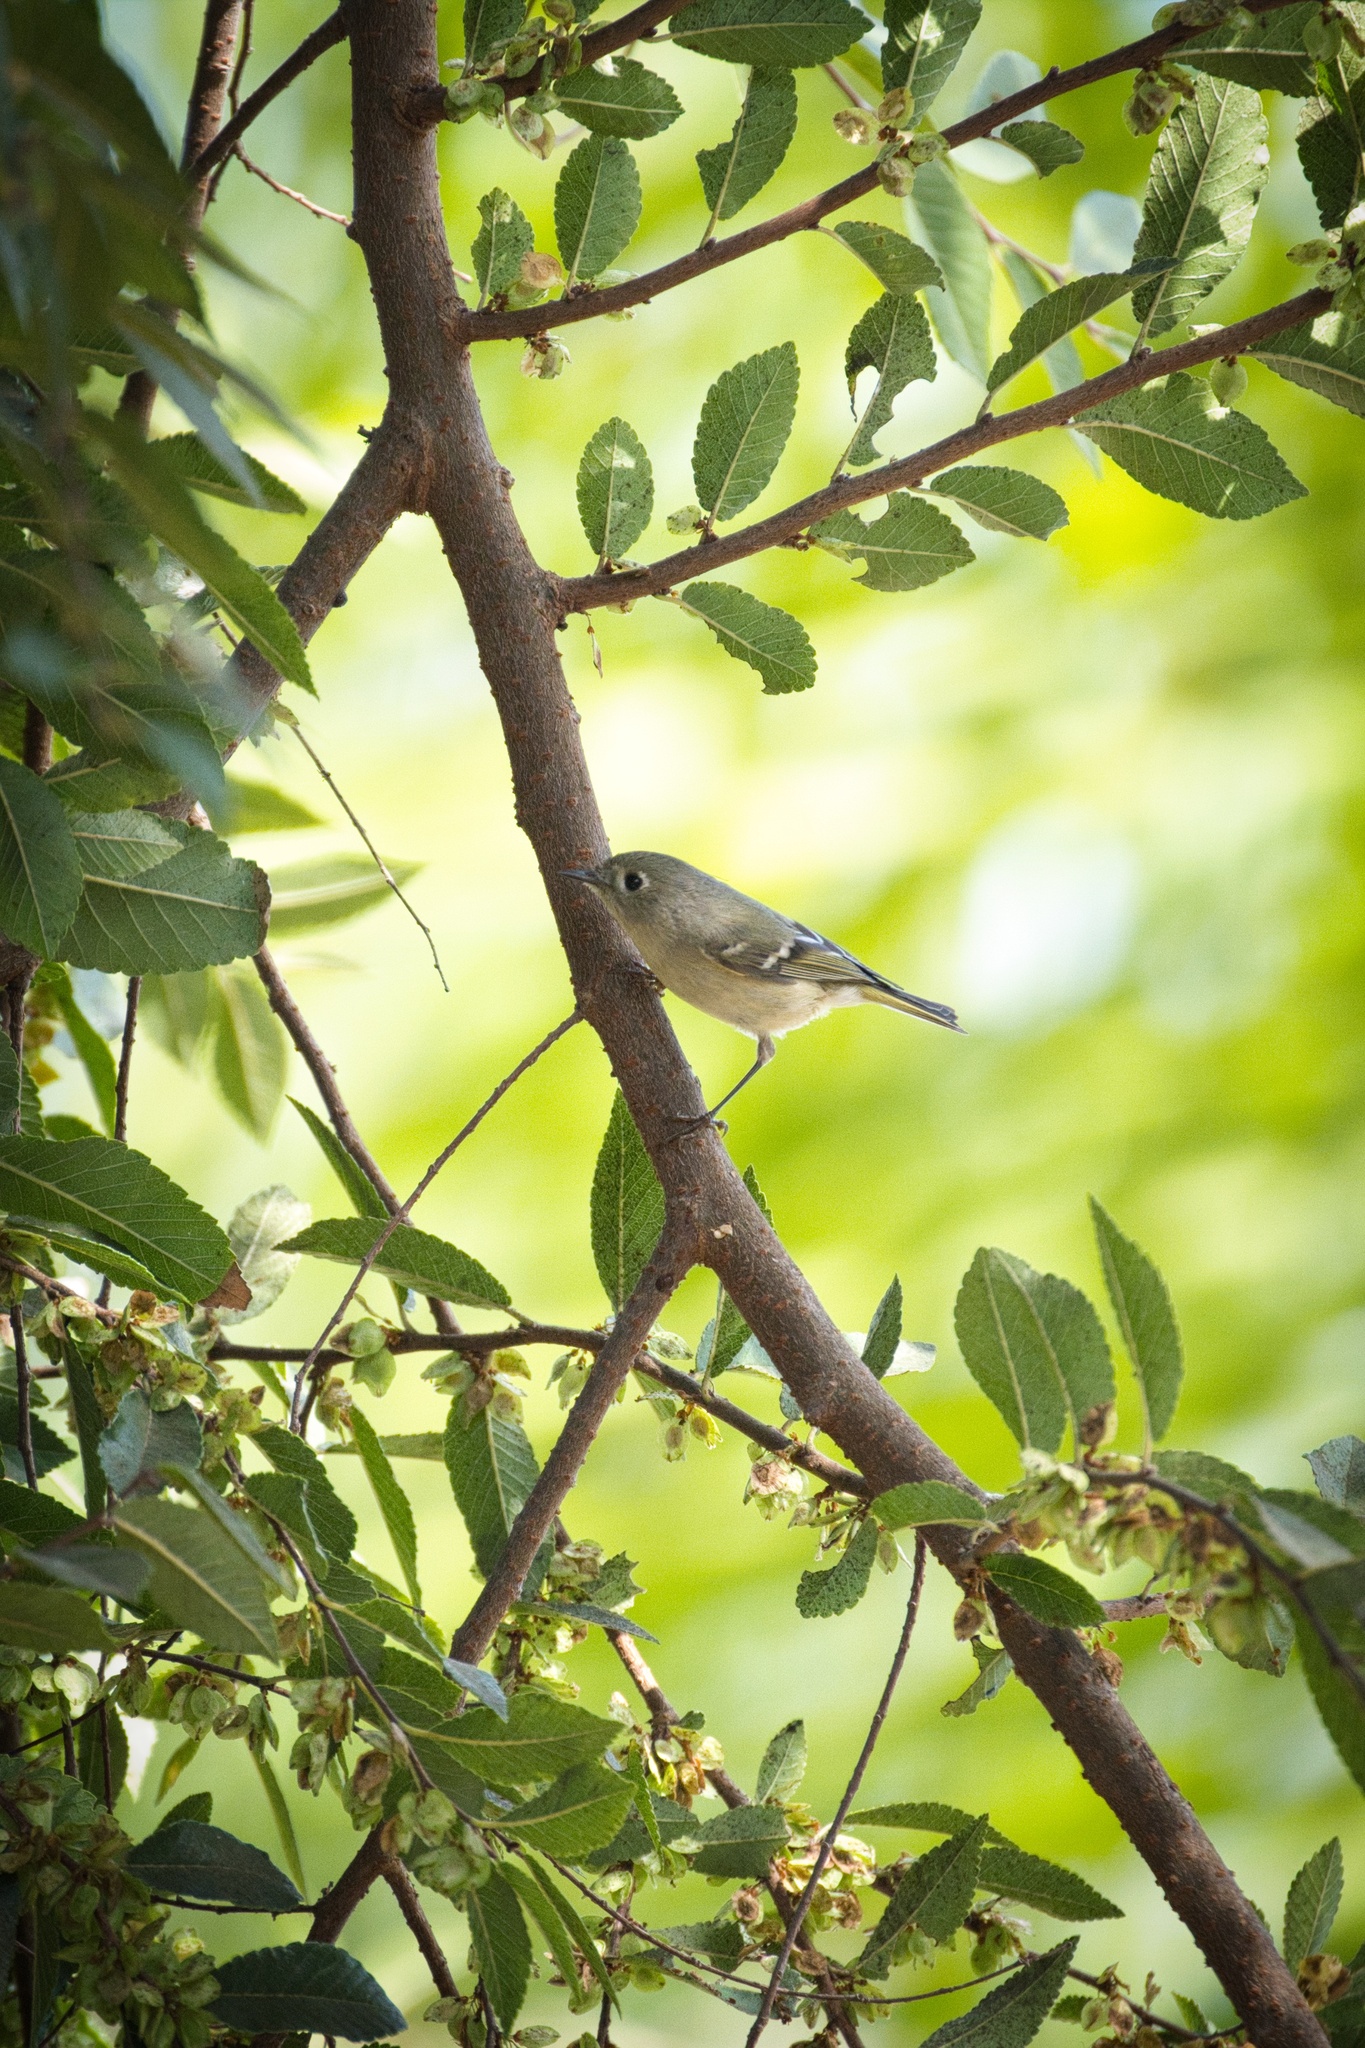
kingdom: Animalia
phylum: Chordata
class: Aves
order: Passeriformes
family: Regulidae
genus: Regulus
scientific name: Regulus calendula
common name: Ruby-crowned kinglet
